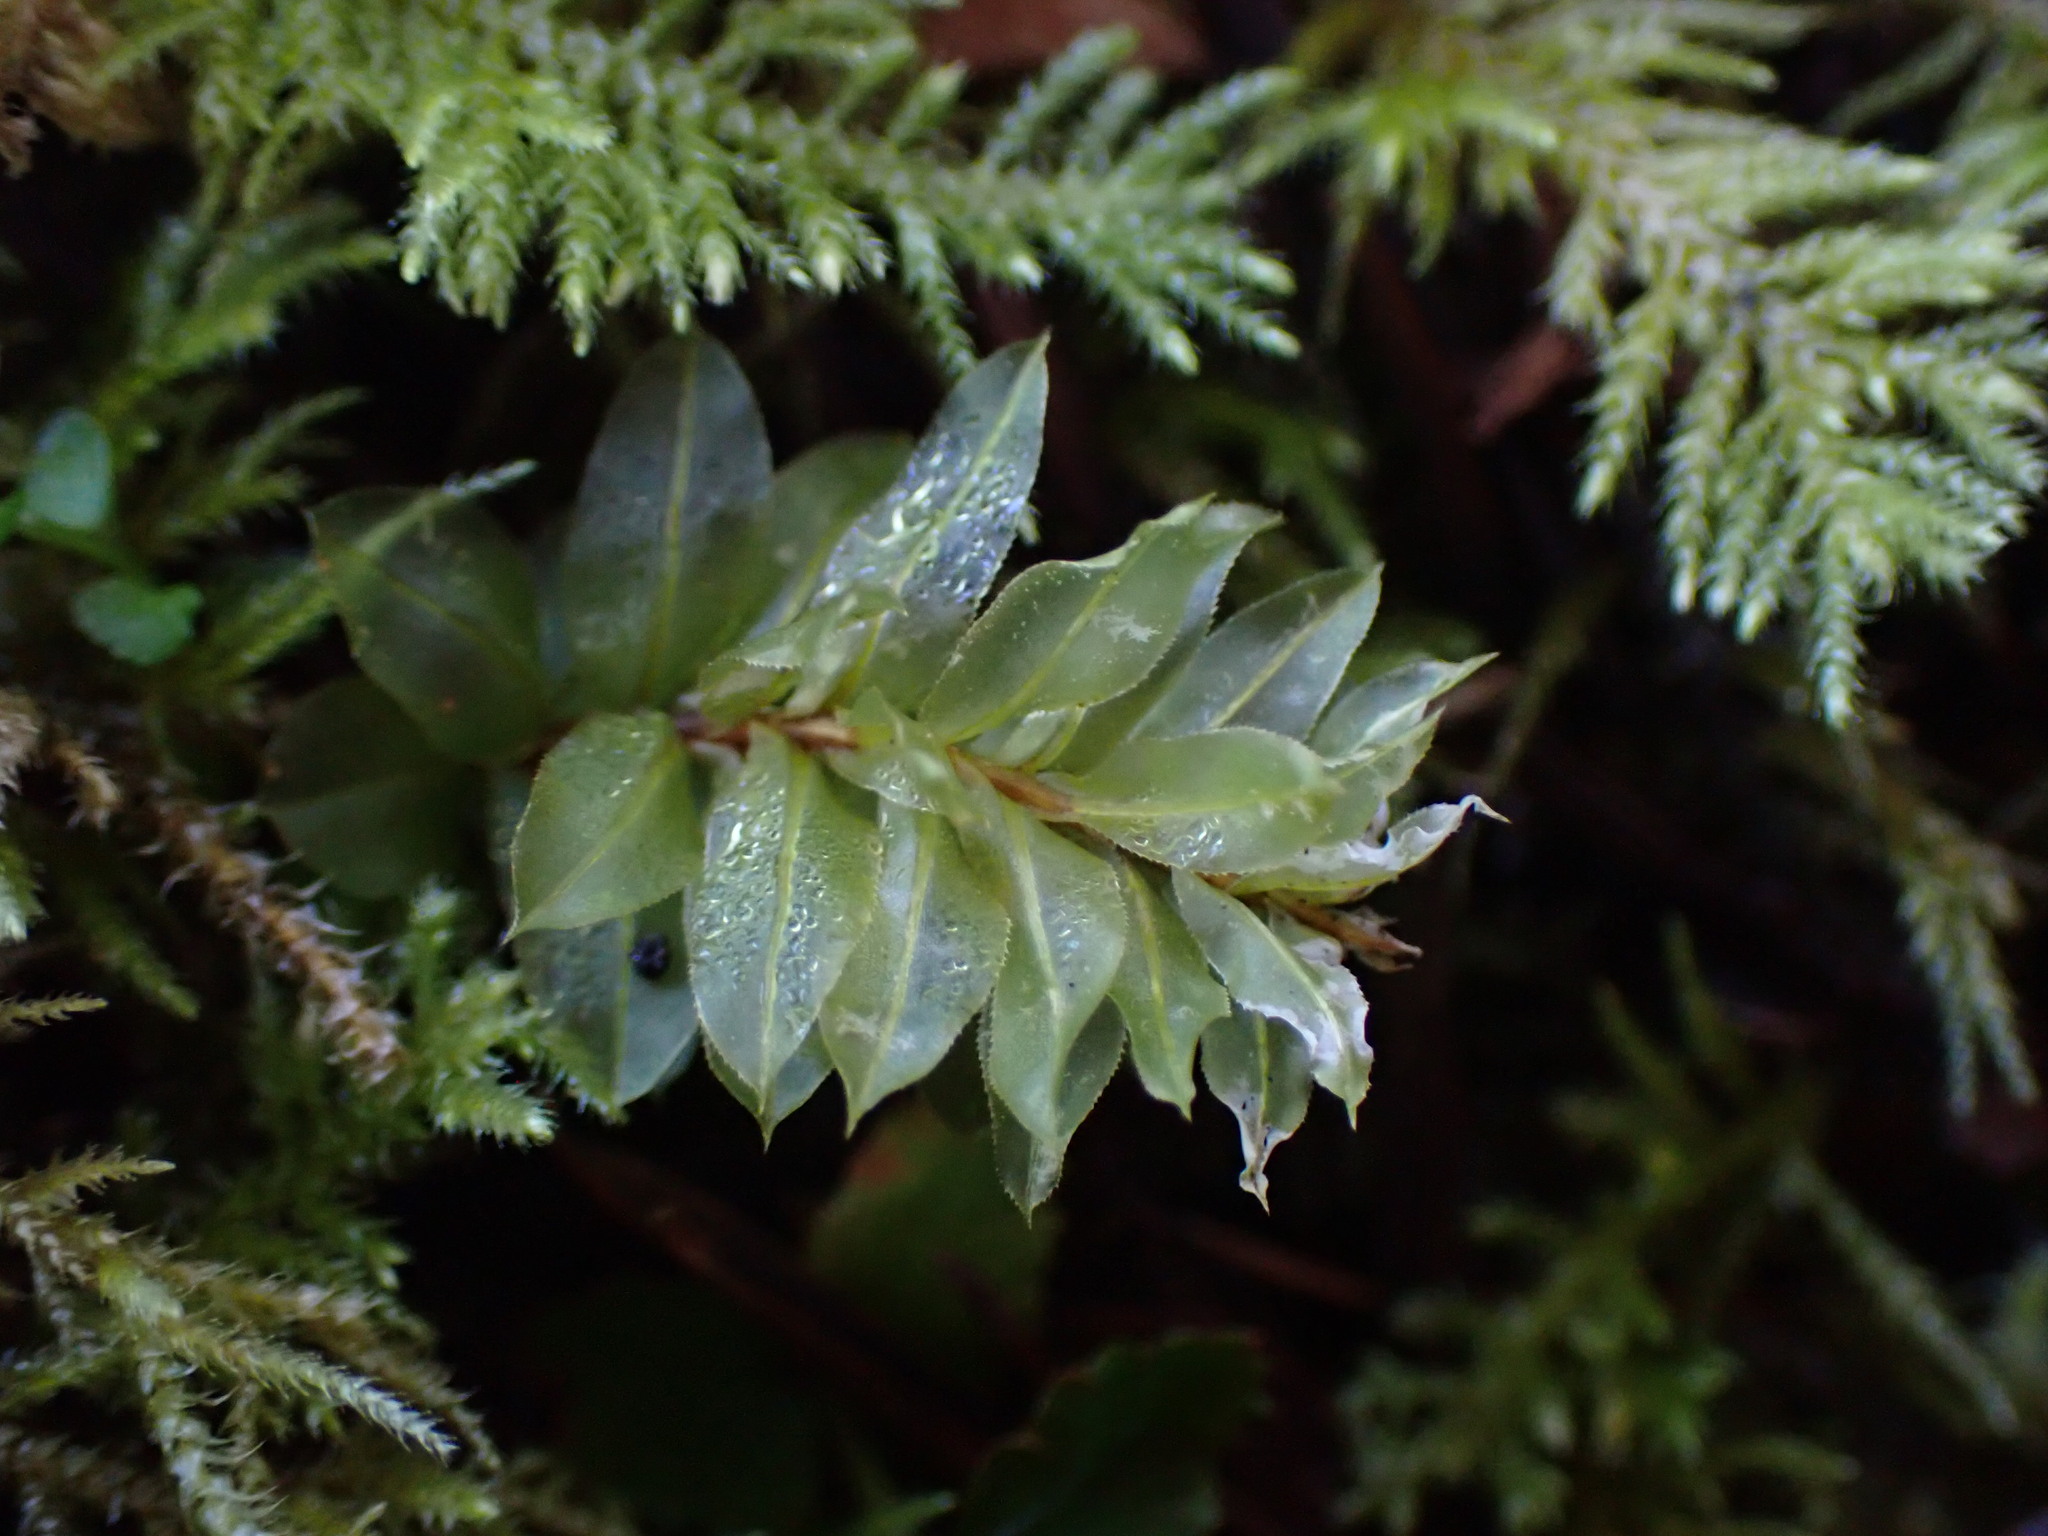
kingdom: Plantae
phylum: Bryophyta
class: Bryopsida
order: Bryales
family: Mniaceae
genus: Plagiomnium
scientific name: Plagiomnium insigne
